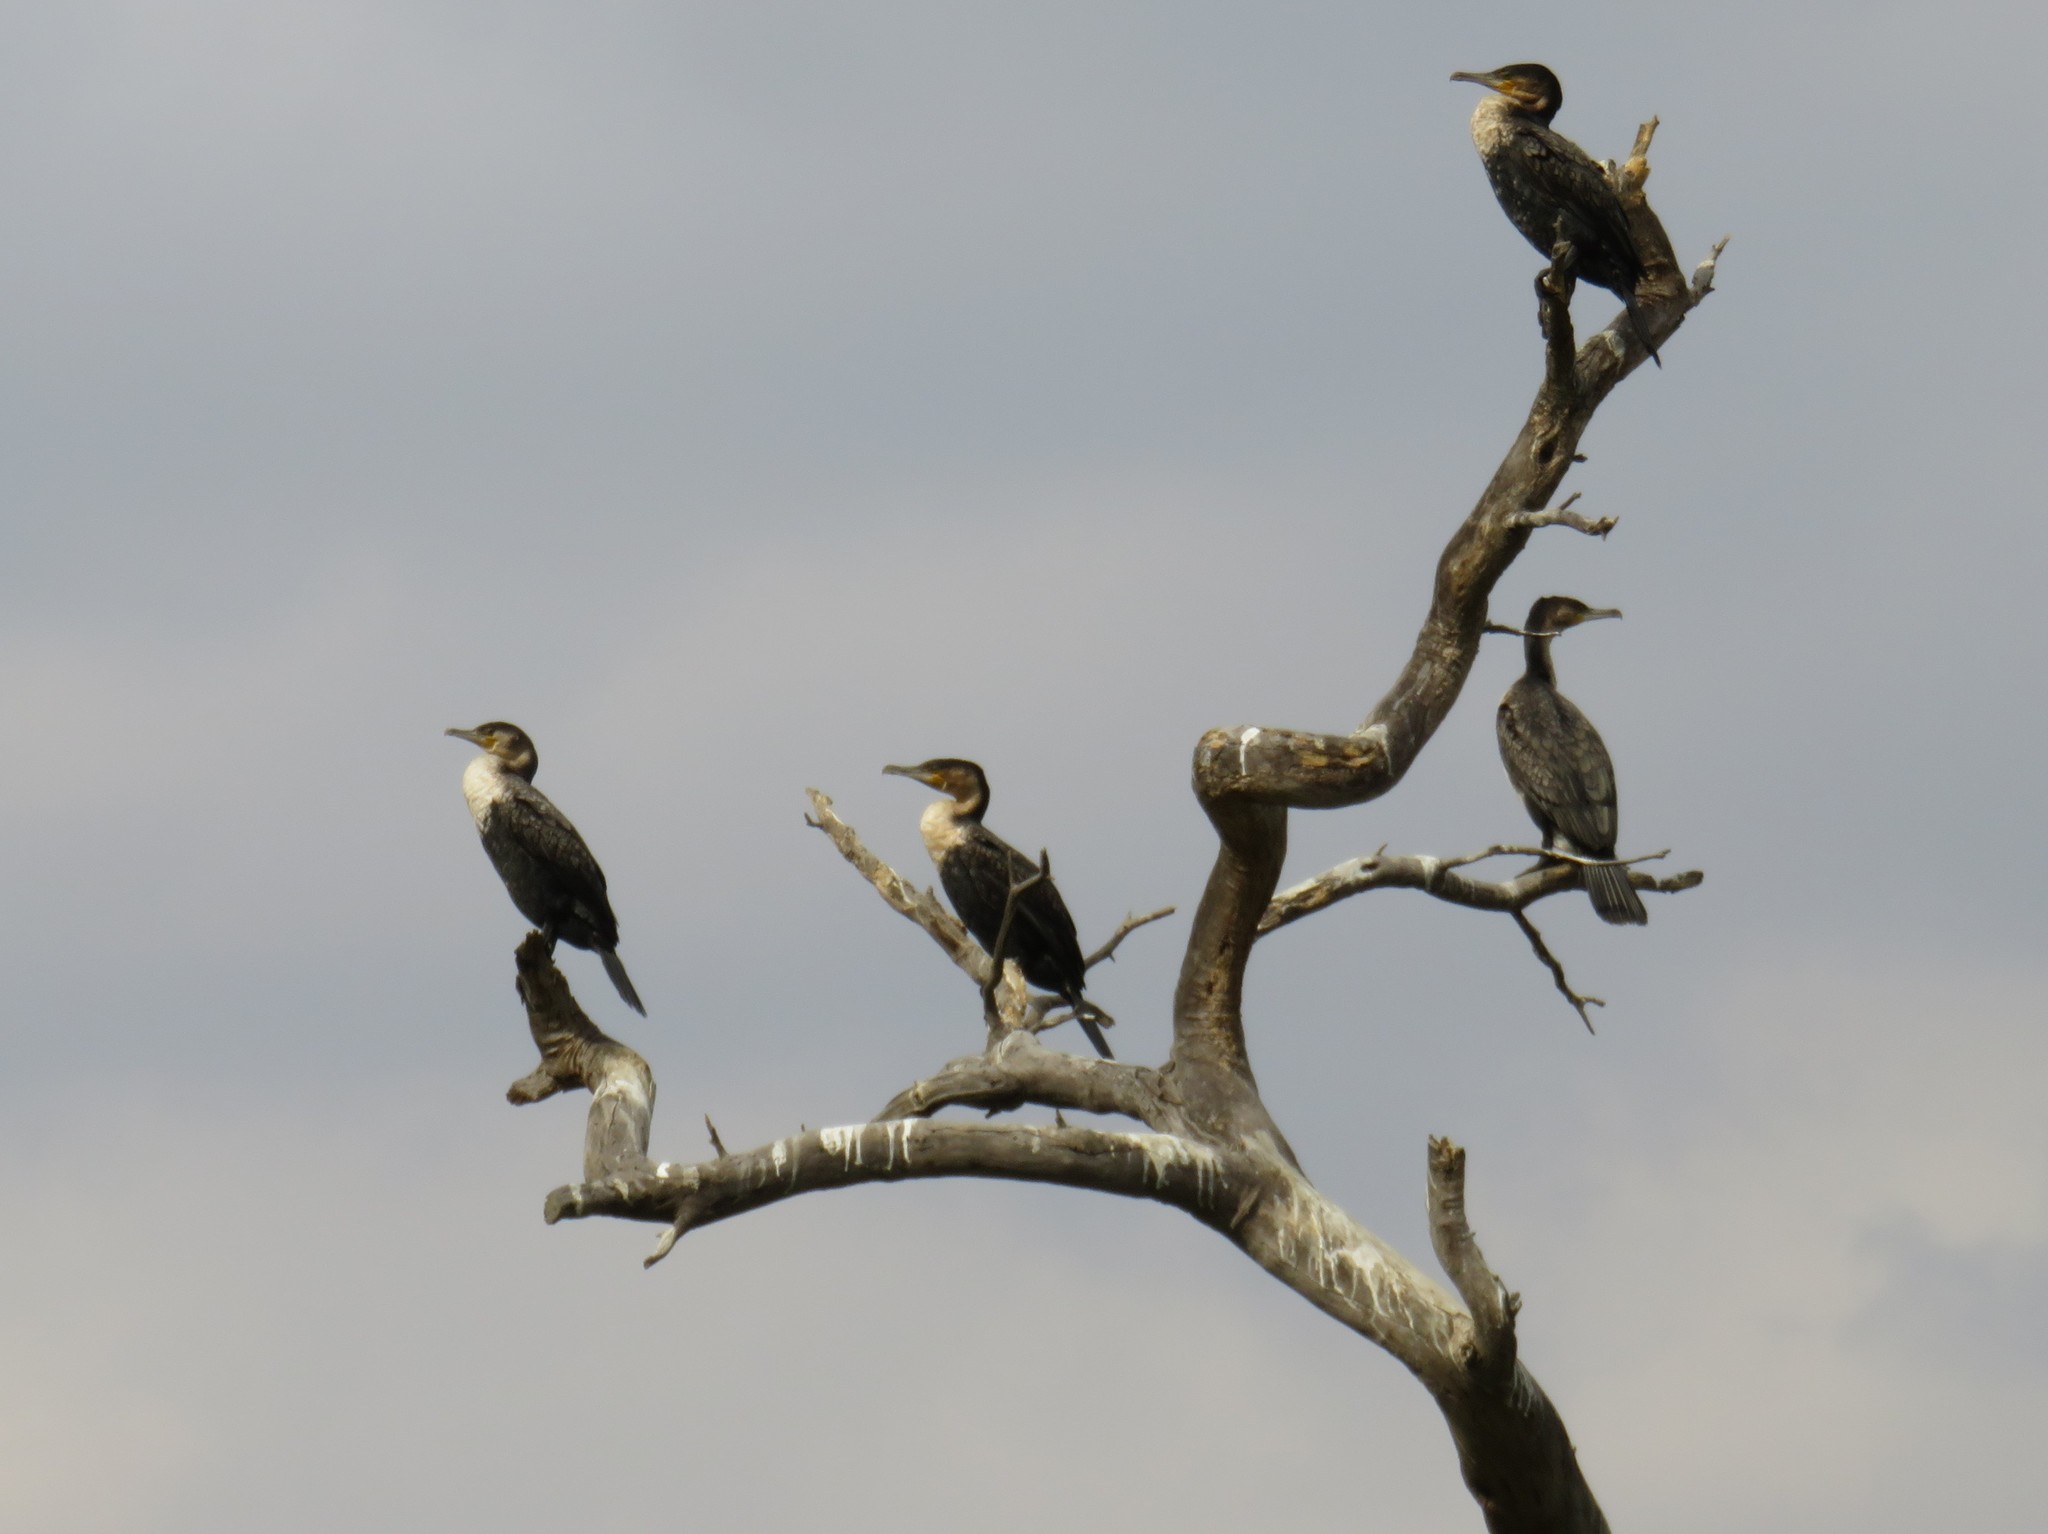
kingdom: Animalia
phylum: Chordata
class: Aves
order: Suliformes
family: Phalacrocoracidae
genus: Phalacrocorax
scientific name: Phalacrocorax carbo
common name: Great cormorant
